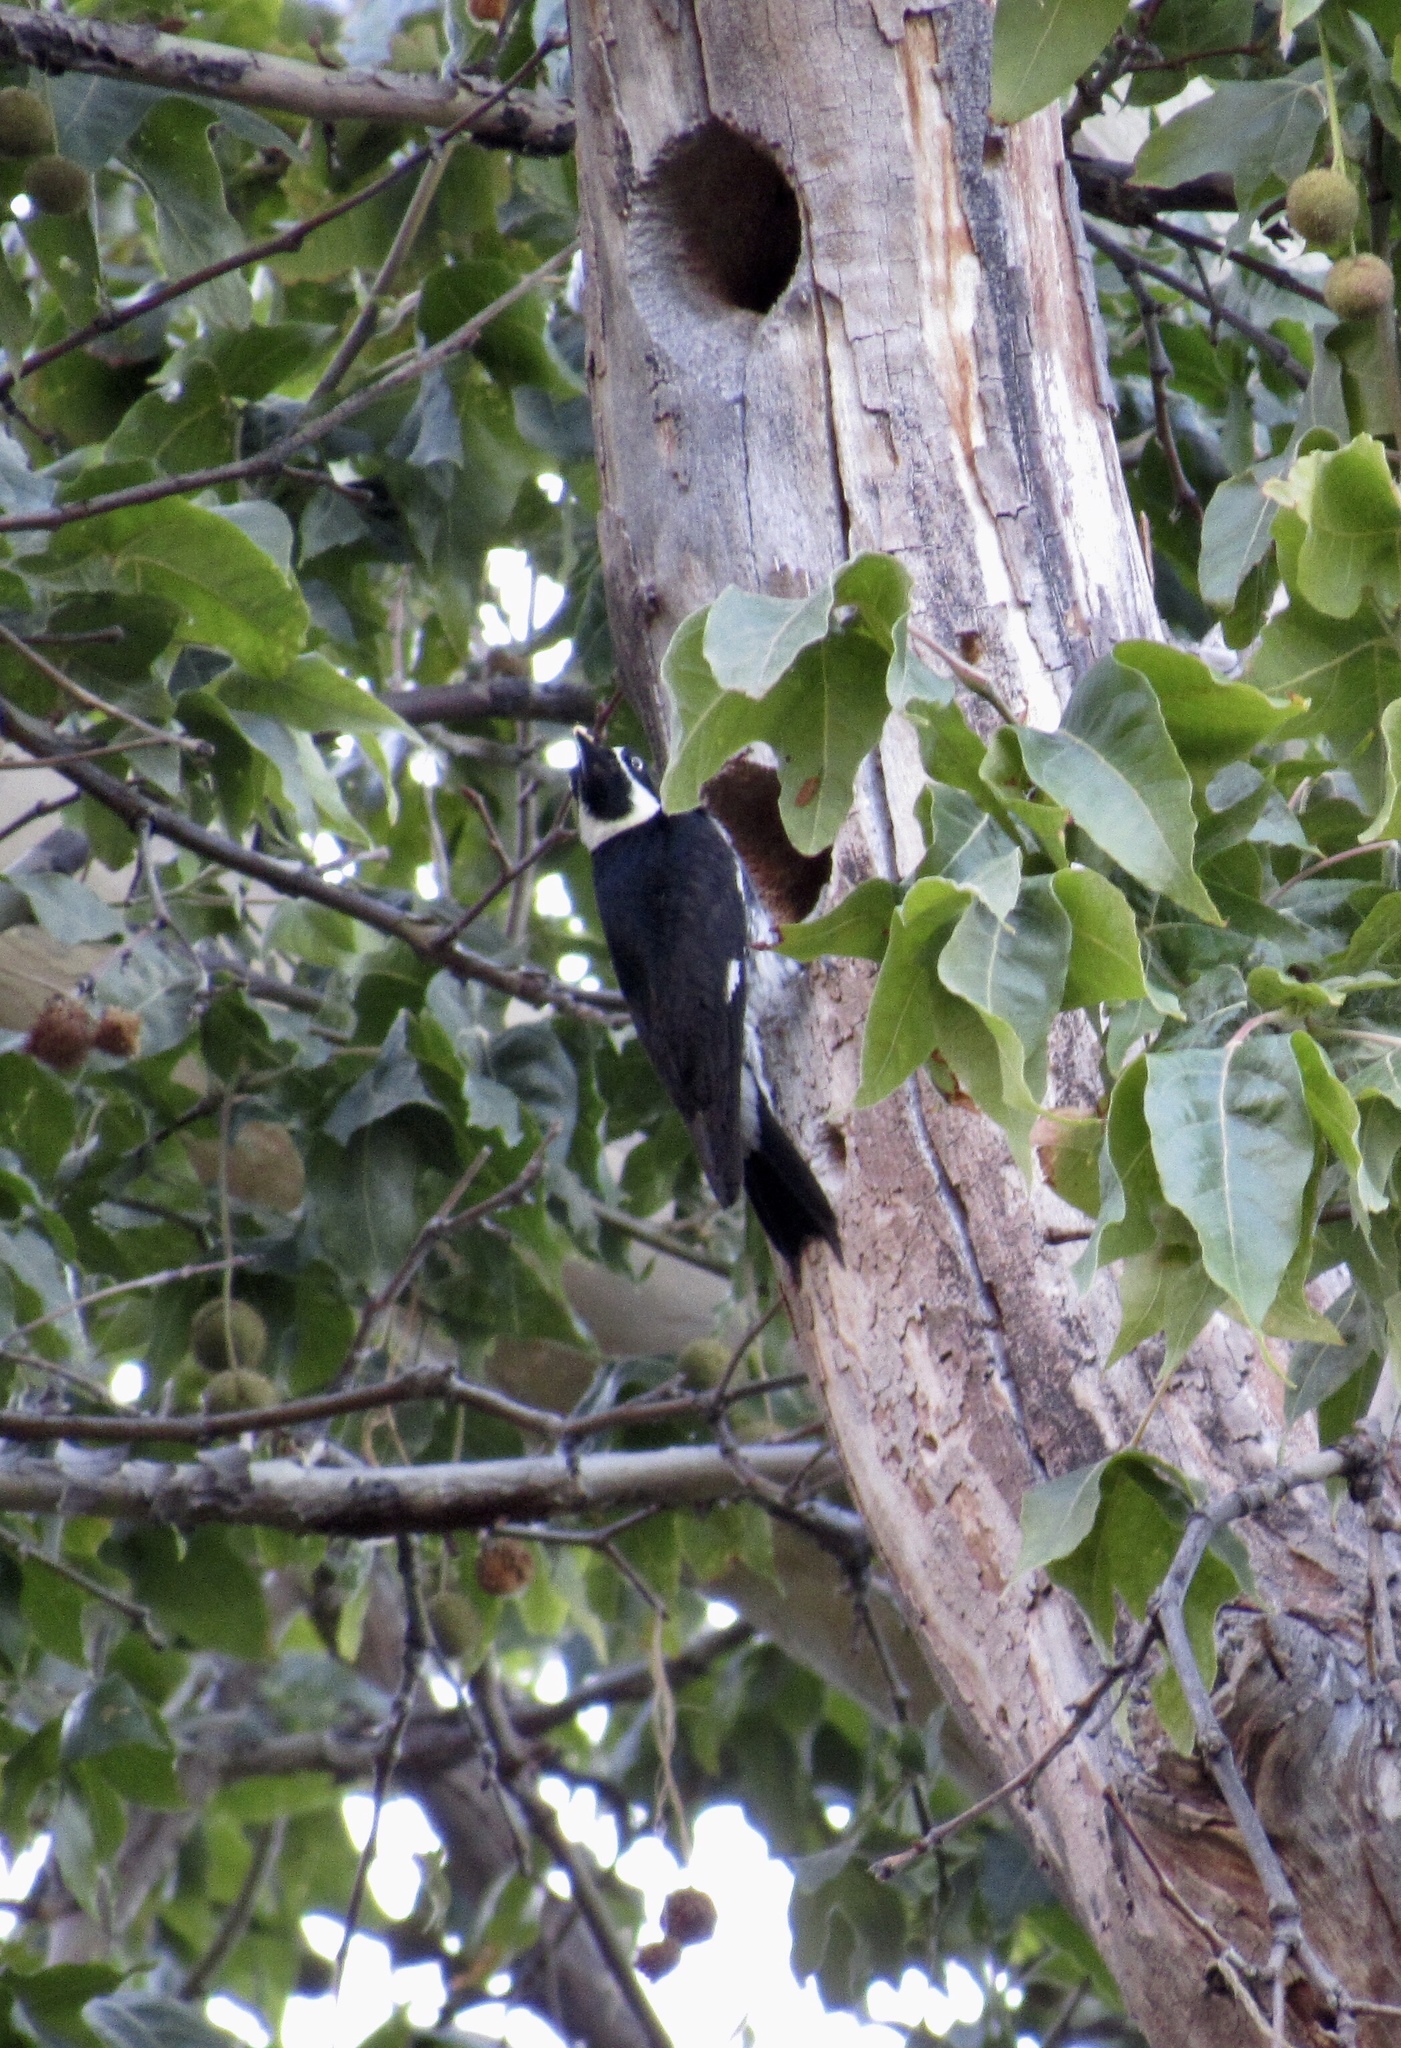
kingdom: Animalia
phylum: Chordata
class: Aves
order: Piciformes
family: Picidae
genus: Melanerpes
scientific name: Melanerpes formicivorus
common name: Acorn woodpecker
